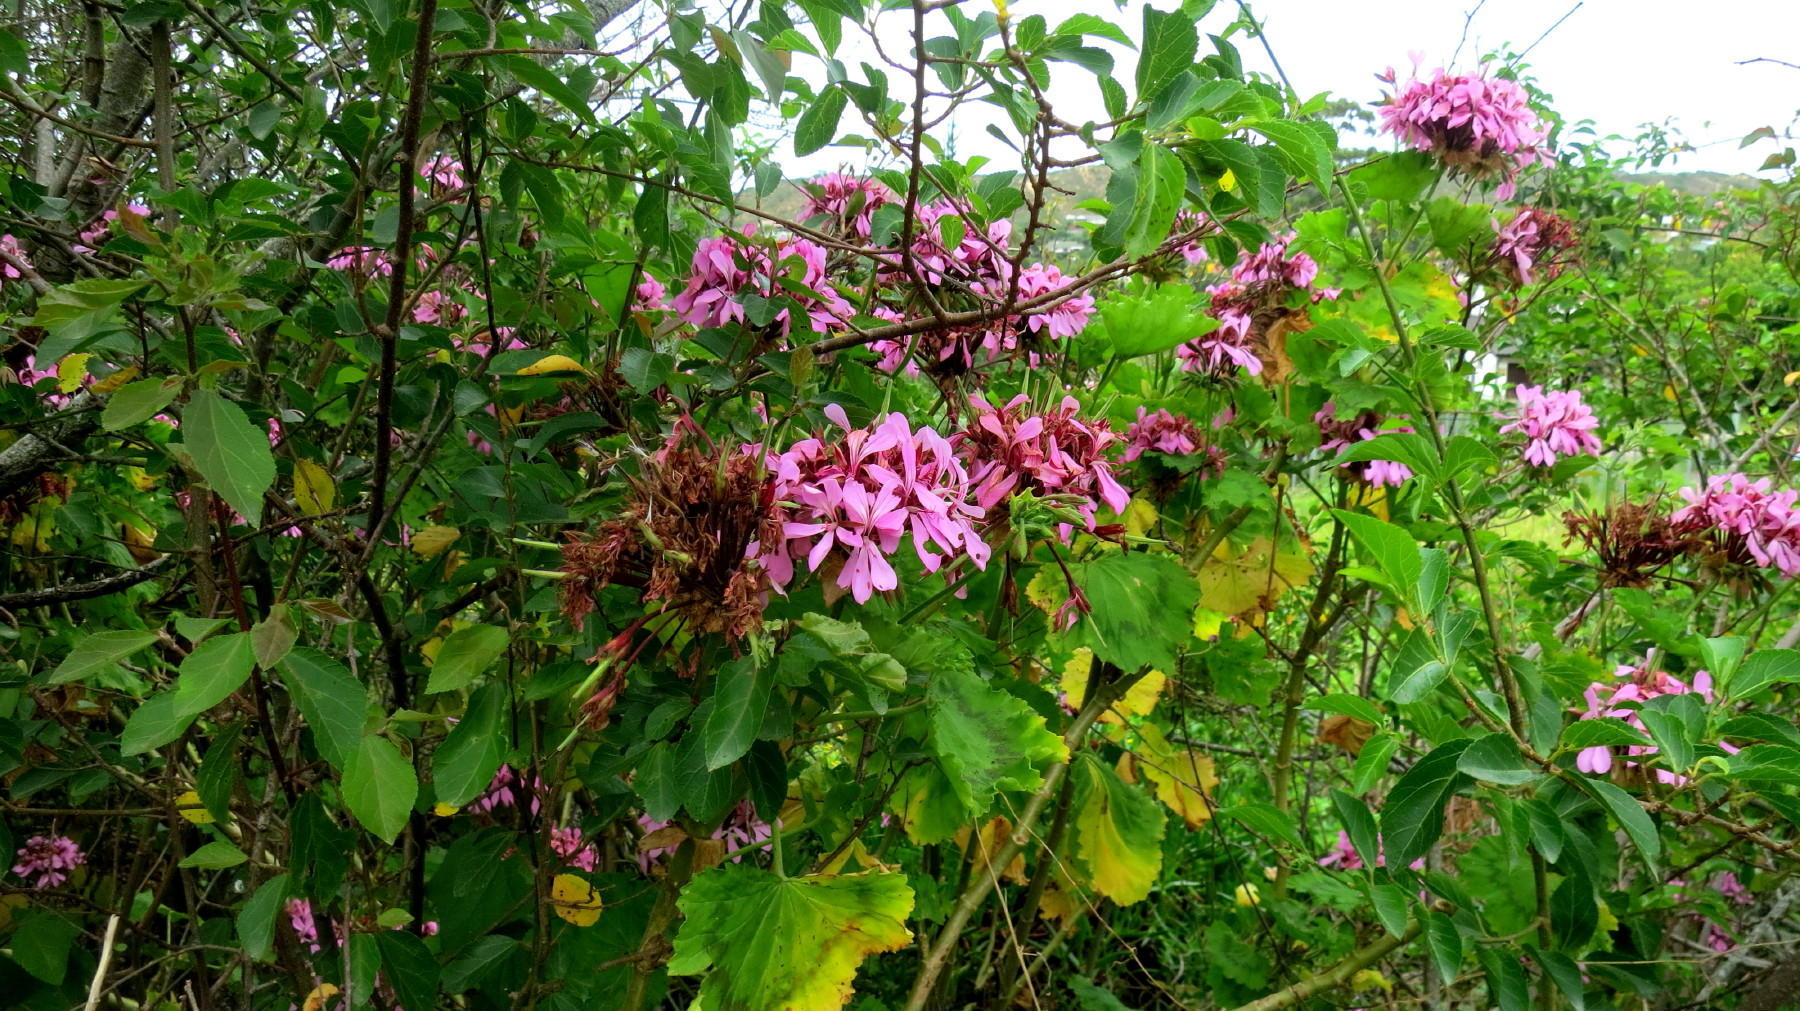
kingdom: Plantae
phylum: Tracheophyta
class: Magnoliopsida
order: Geraniales
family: Geraniaceae
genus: Pelargonium
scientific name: Pelargonium zonale
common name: Horseshoe geranium
